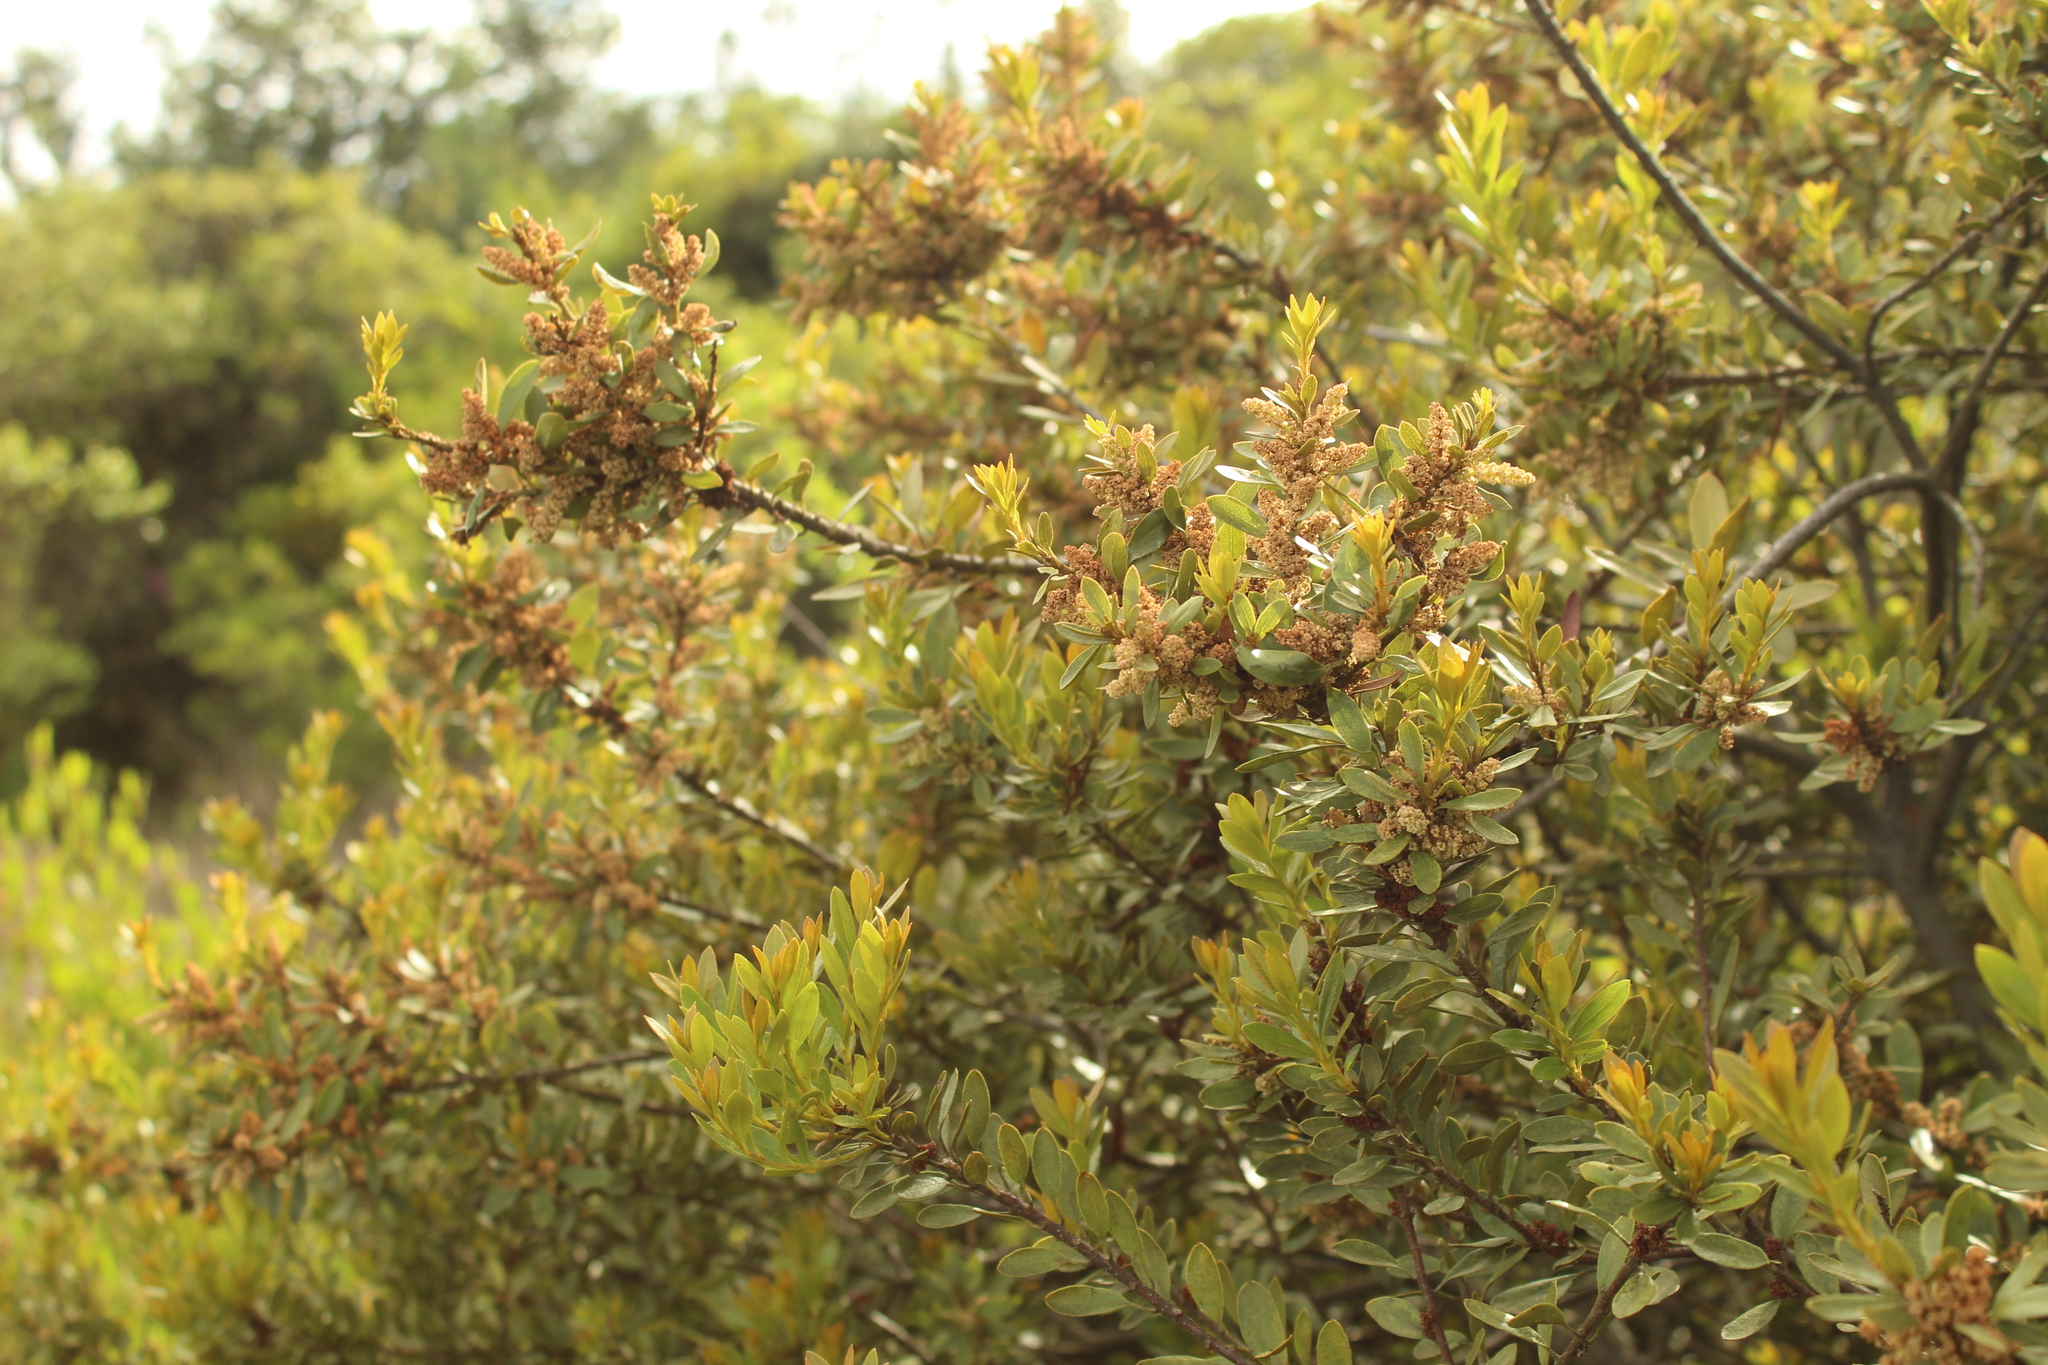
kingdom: Plantae
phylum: Tracheophyta
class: Magnoliopsida
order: Fagales
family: Myricaceae
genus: Morella
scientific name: Morella parvifolia
